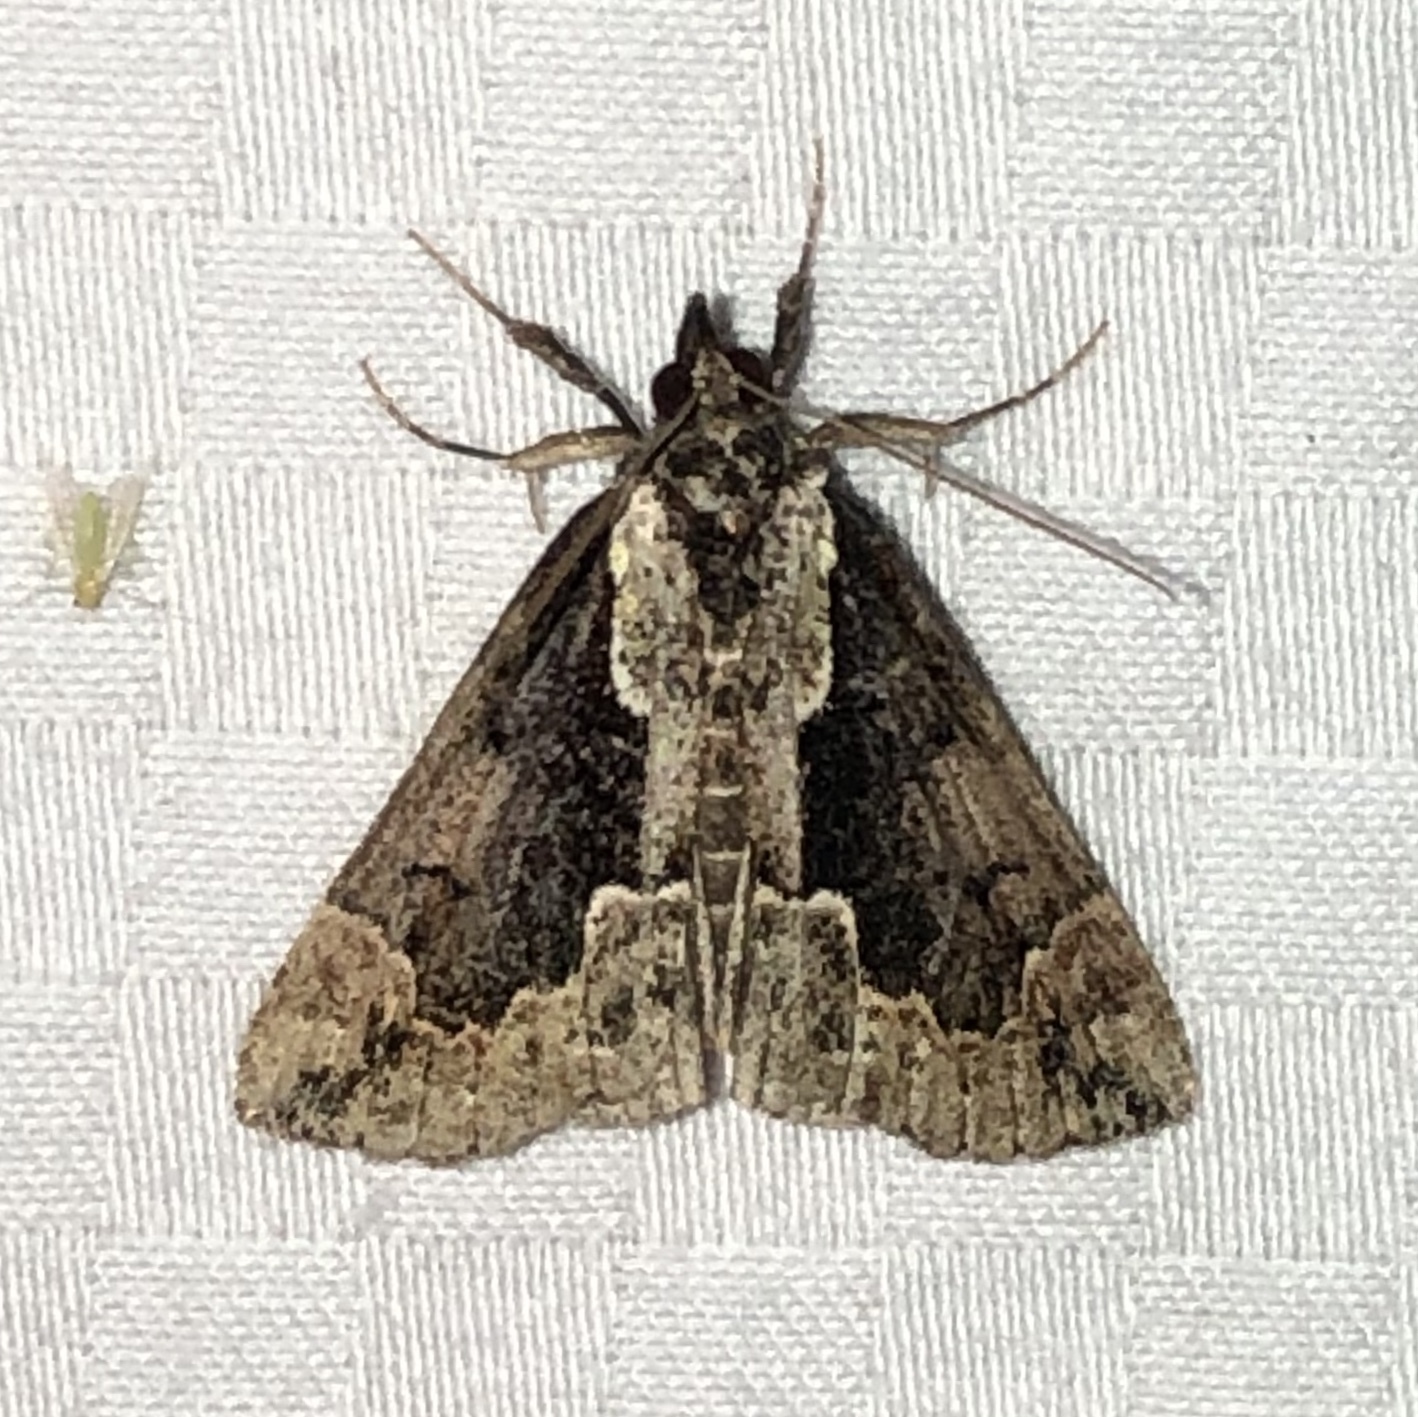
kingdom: Animalia
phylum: Arthropoda
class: Insecta
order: Lepidoptera
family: Erebidae
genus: Hypena
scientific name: Hypena baltimoralis
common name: Baltimore snout
